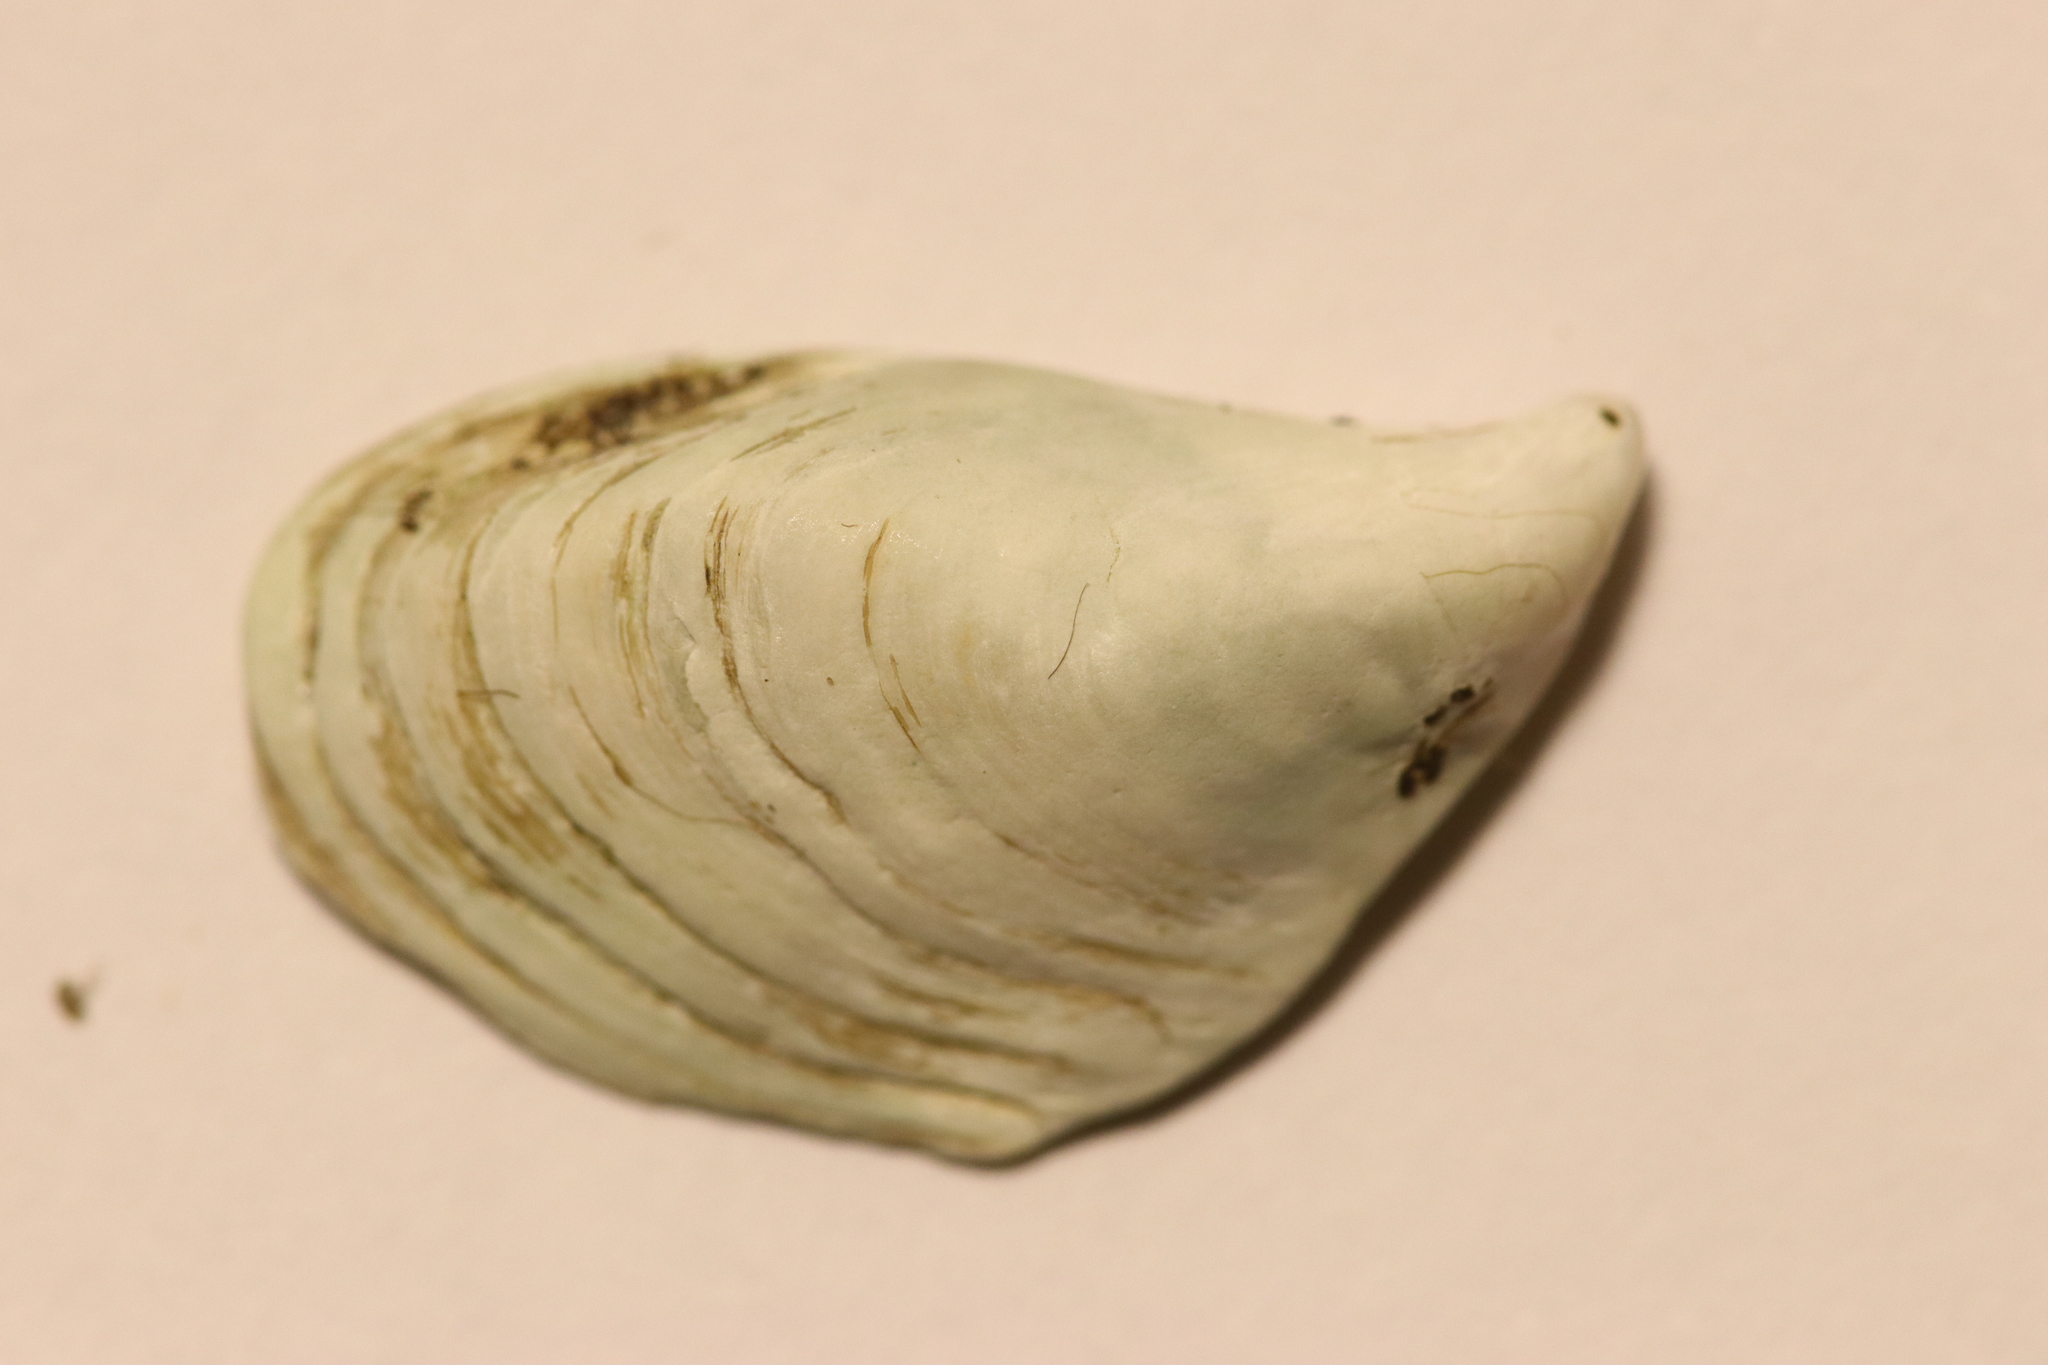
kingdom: Animalia
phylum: Mollusca
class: Bivalvia
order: Myida
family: Dreissenidae
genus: Dreissena
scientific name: Dreissena bugensis
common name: Quagga mussel
